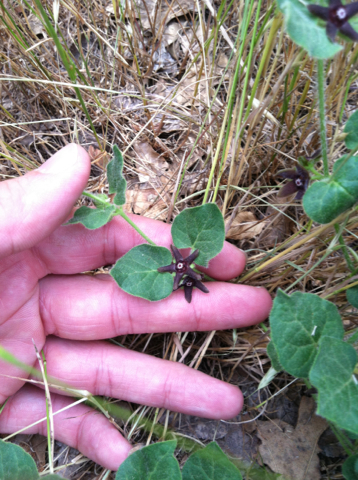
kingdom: Plantae
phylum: Tracheophyta
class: Magnoliopsida
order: Gentianales
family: Apocynaceae
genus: Chthamalia
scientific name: Chthamalia biflora
